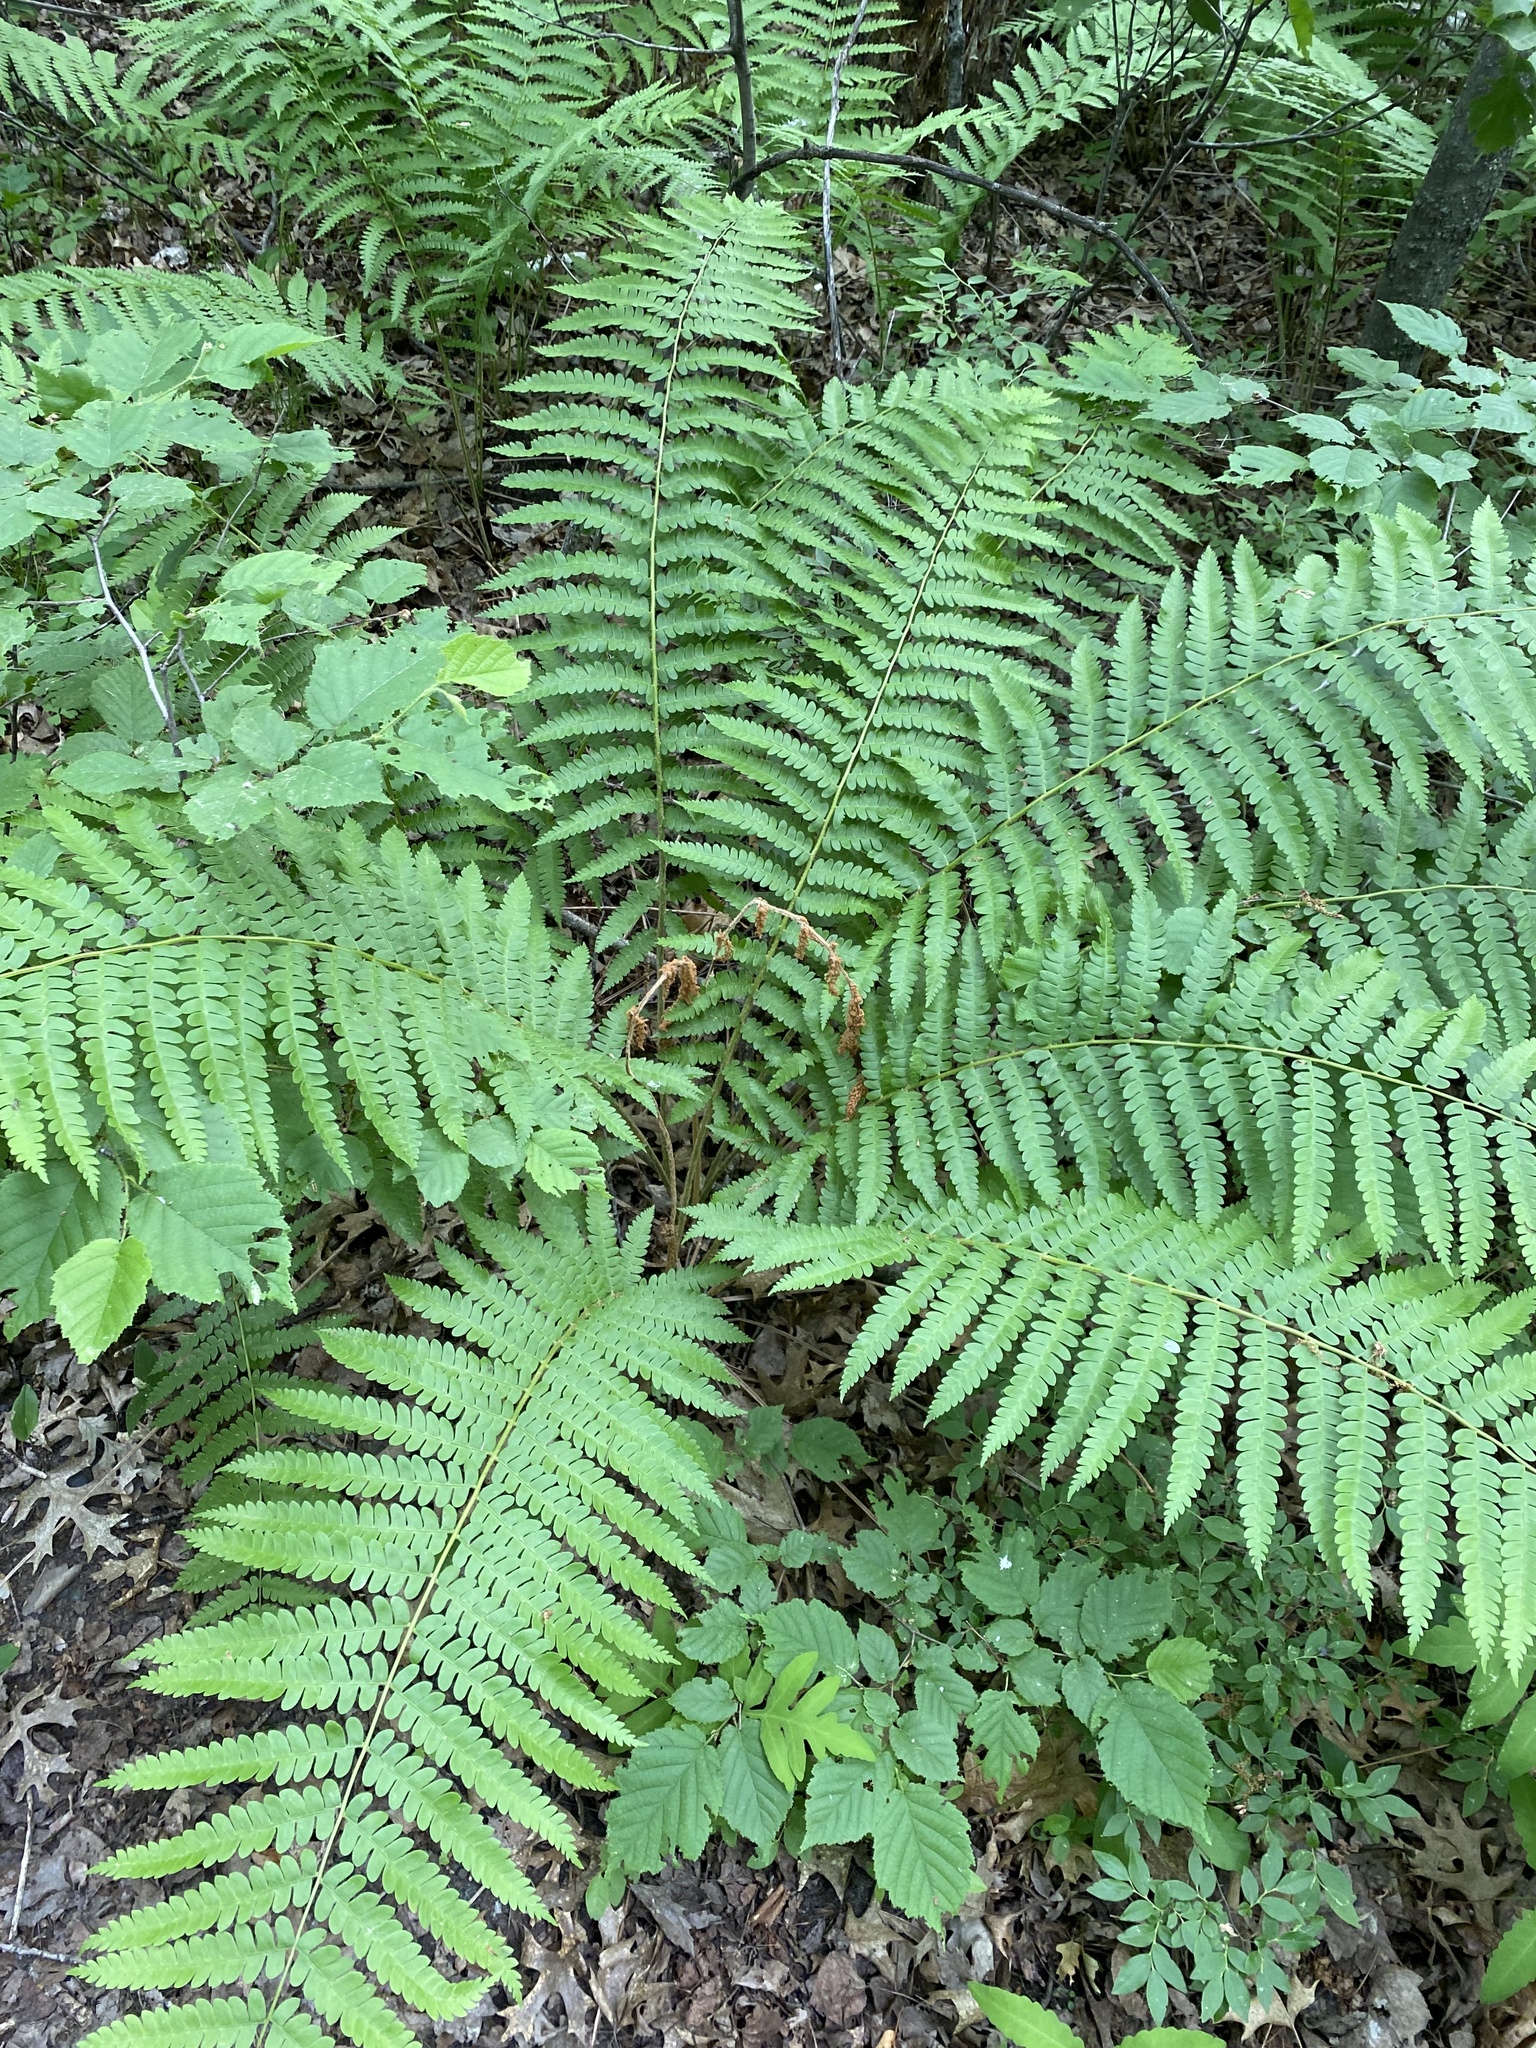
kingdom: Plantae
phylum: Tracheophyta
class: Polypodiopsida
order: Osmundales
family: Osmundaceae
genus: Osmundastrum
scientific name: Osmundastrum cinnamomeum
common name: Cinnamon fern
